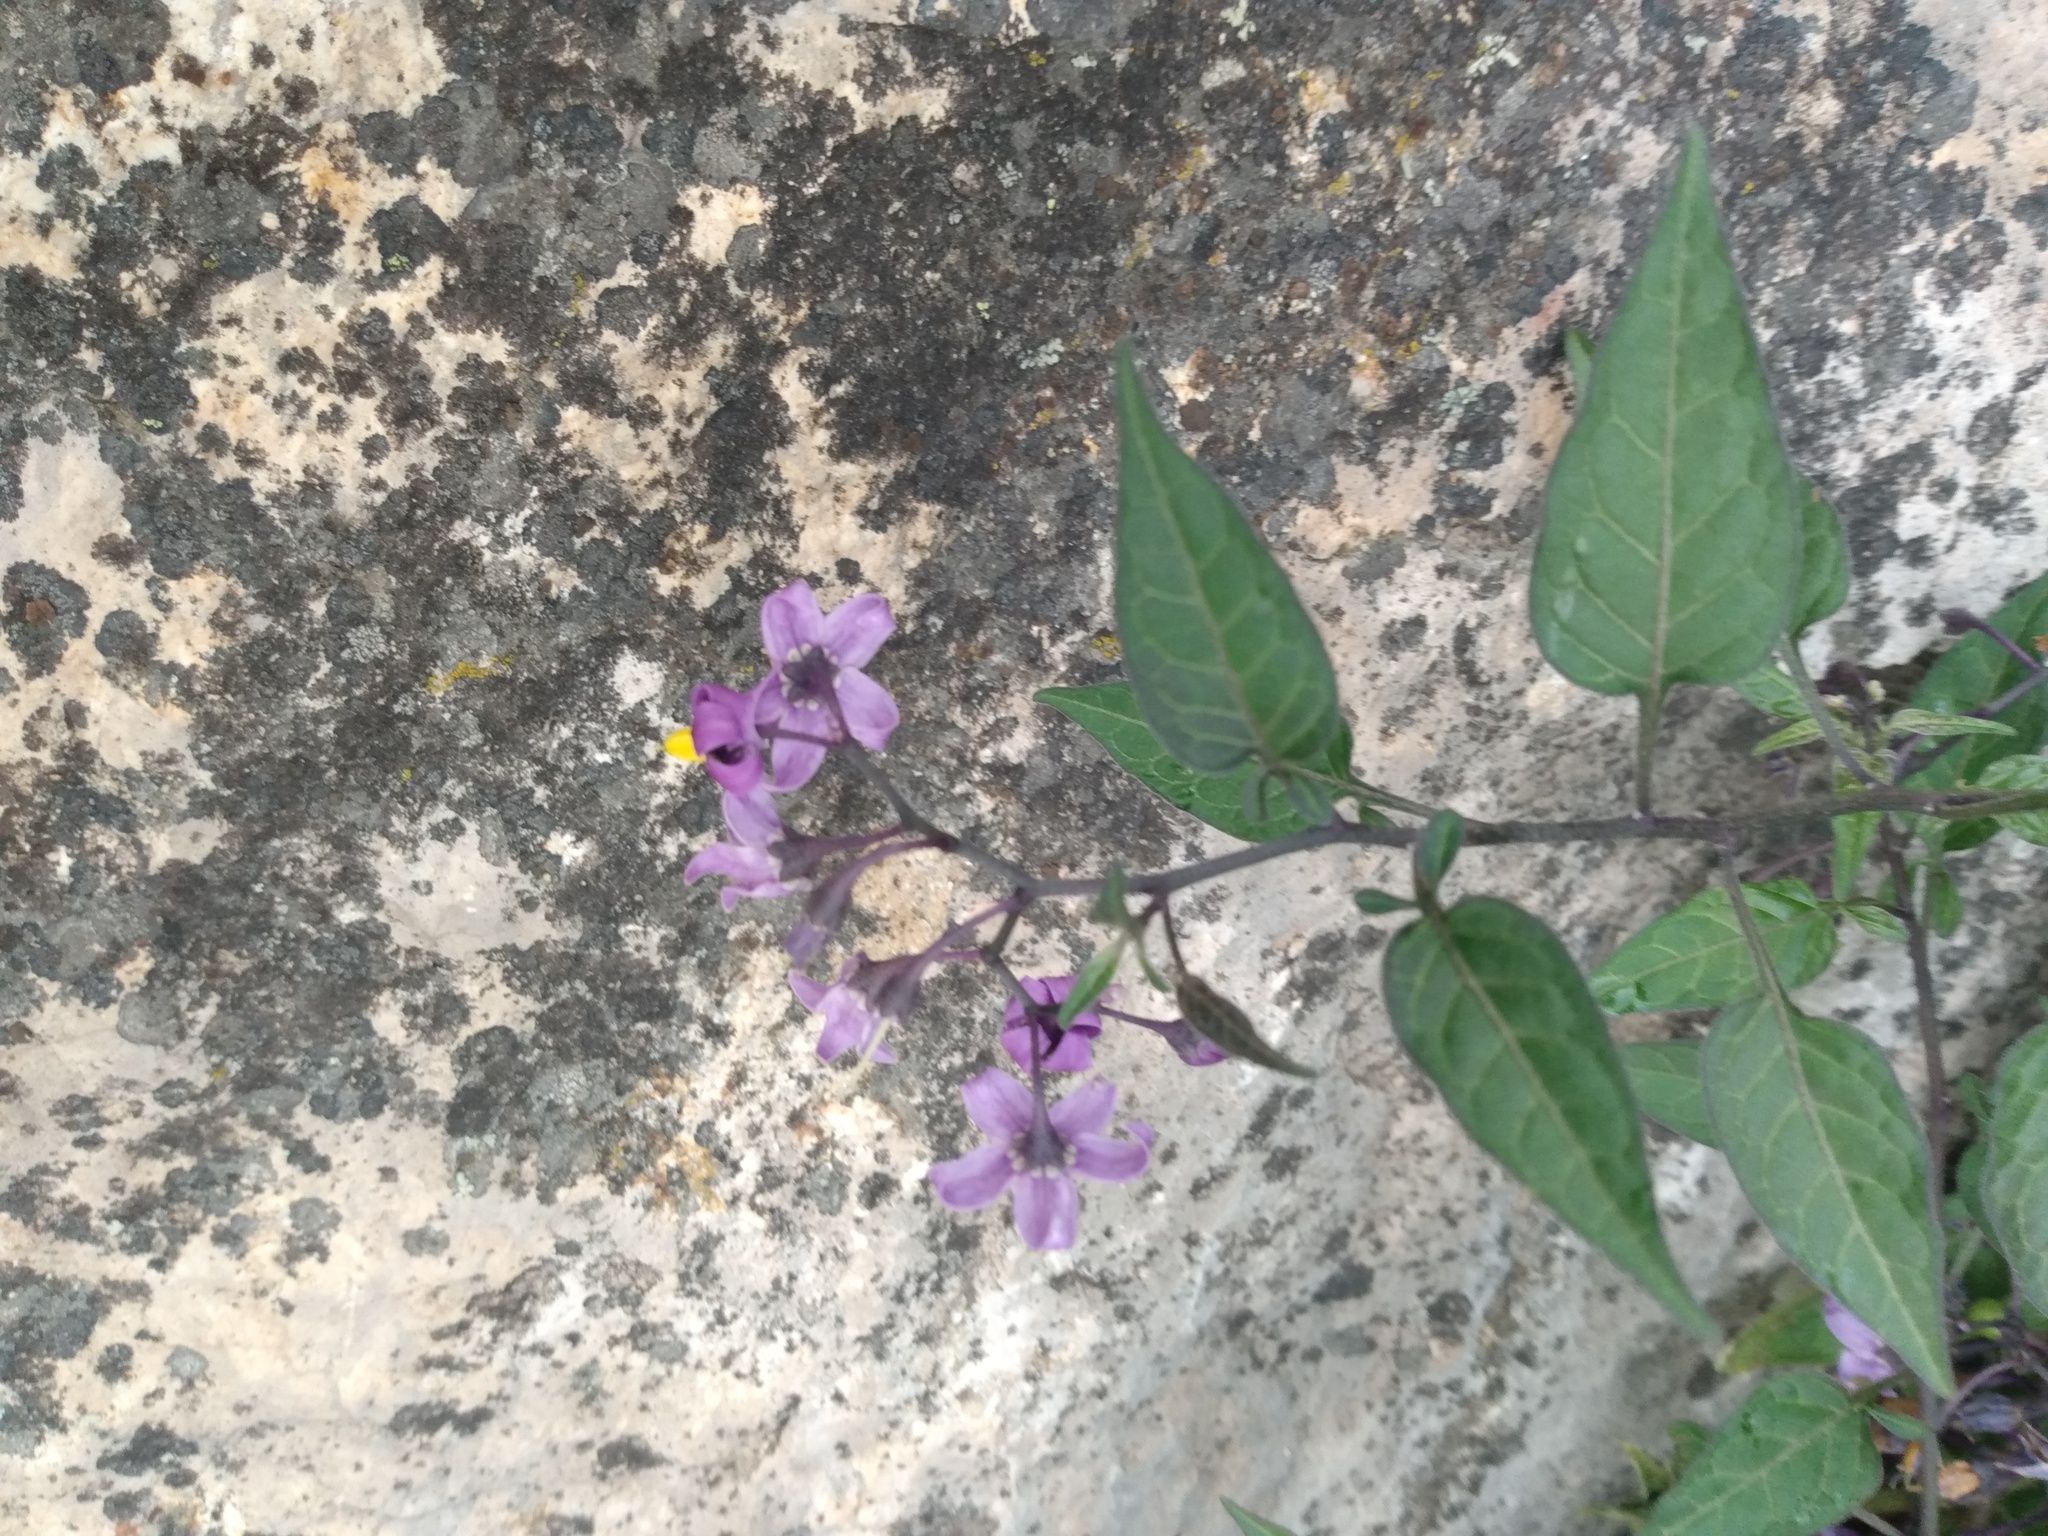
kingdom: Plantae
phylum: Tracheophyta
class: Magnoliopsida
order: Solanales
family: Solanaceae
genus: Solanum
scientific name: Solanum dulcamara
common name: Climbing nightshade
